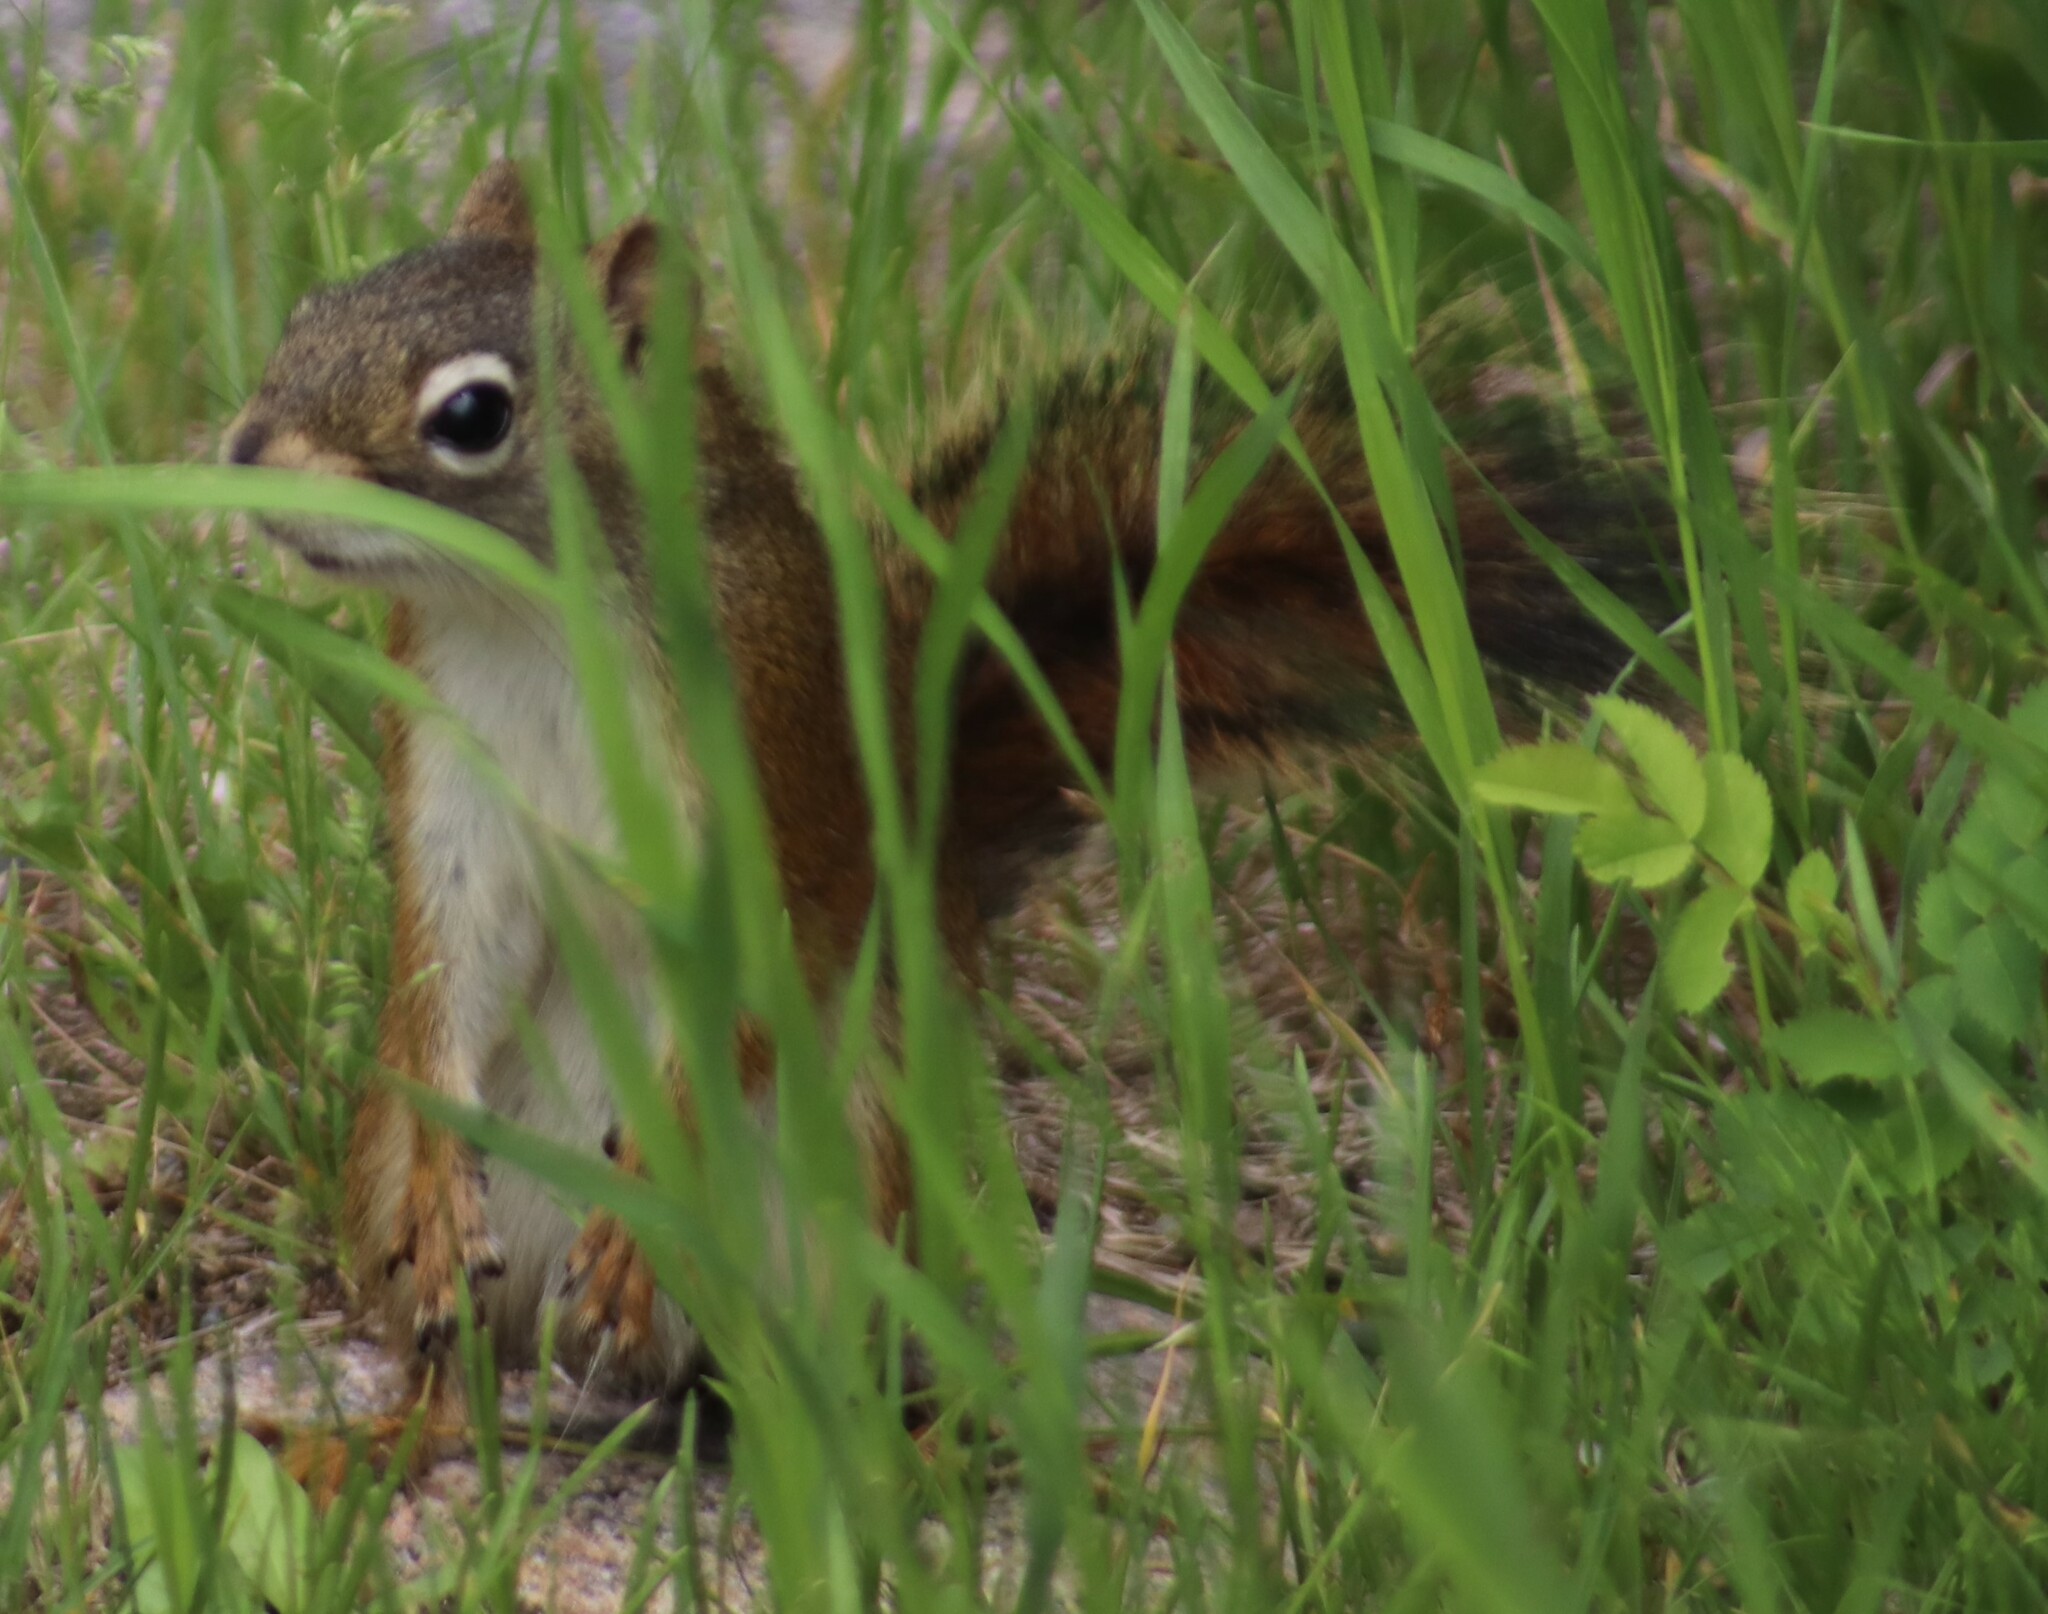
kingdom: Animalia
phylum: Chordata
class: Mammalia
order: Rodentia
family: Sciuridae
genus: Tamiasciurus
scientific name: Tamiasciurus hudsonicus
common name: Red squirrel
